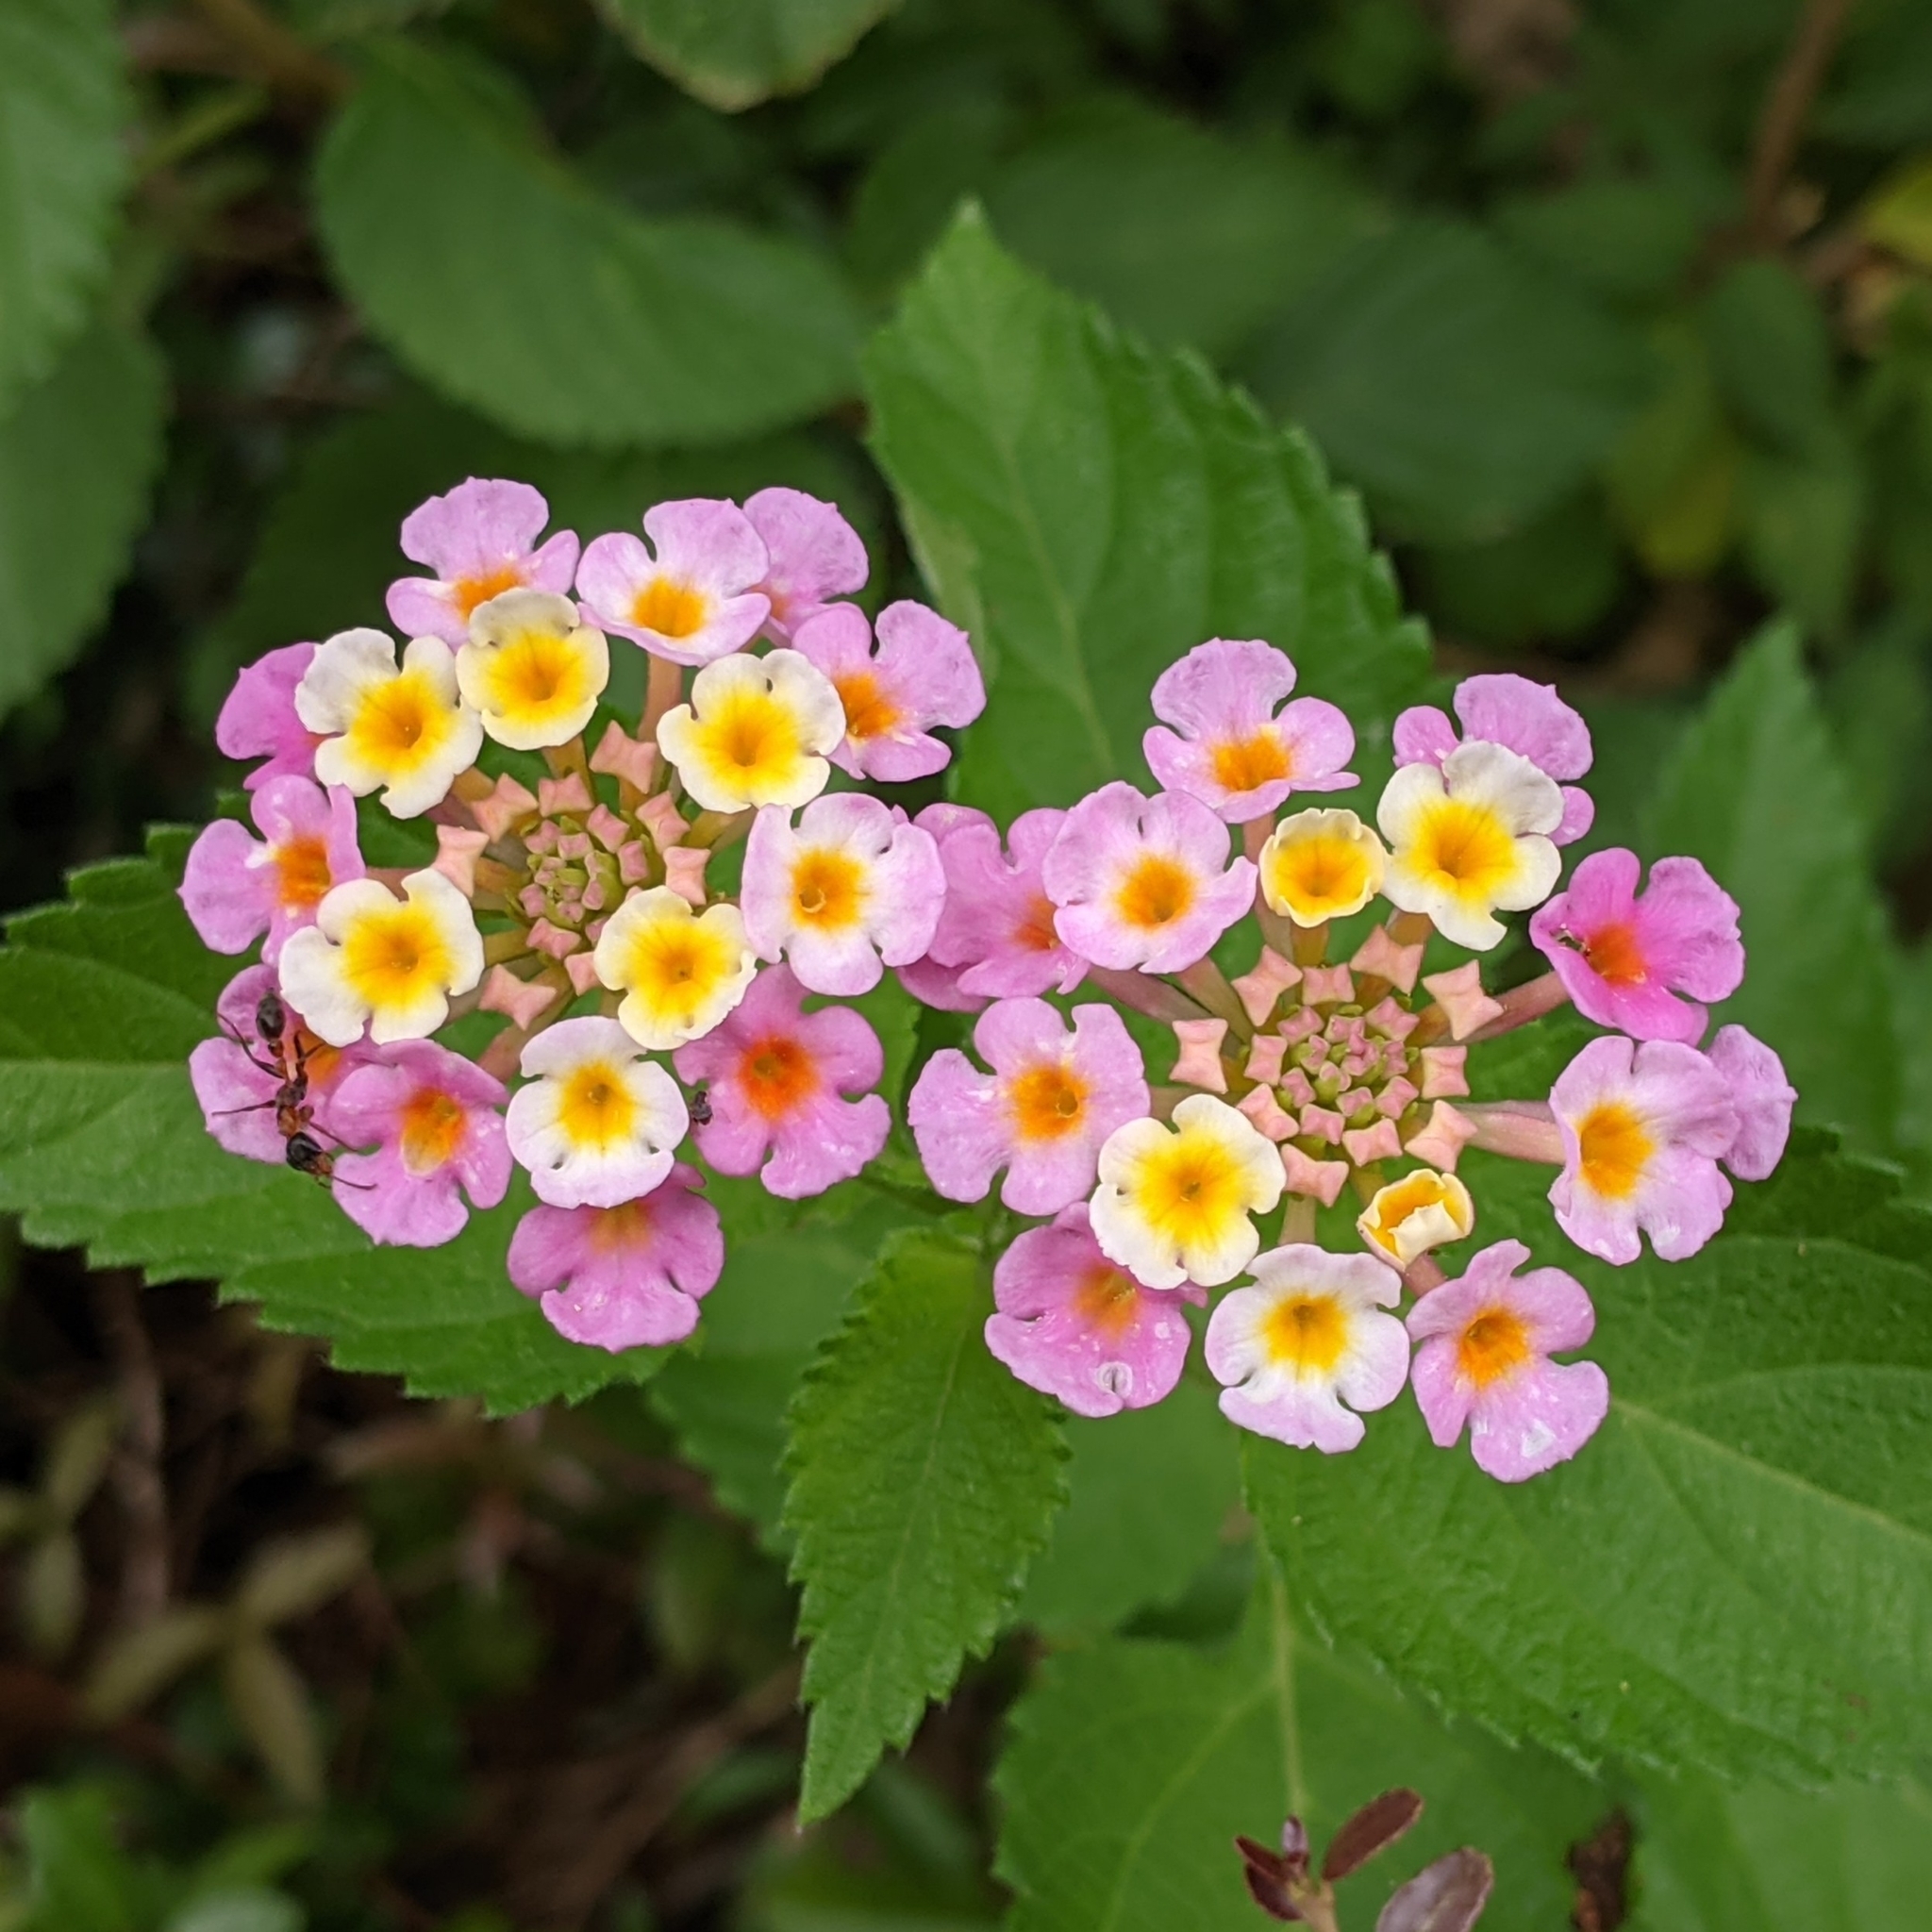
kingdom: Plantae
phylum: Tracheophyta
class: Magnoliopsida
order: Lamiales
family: Verbenaceae
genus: Lantana
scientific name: Lantana strigocamara
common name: Lantana
